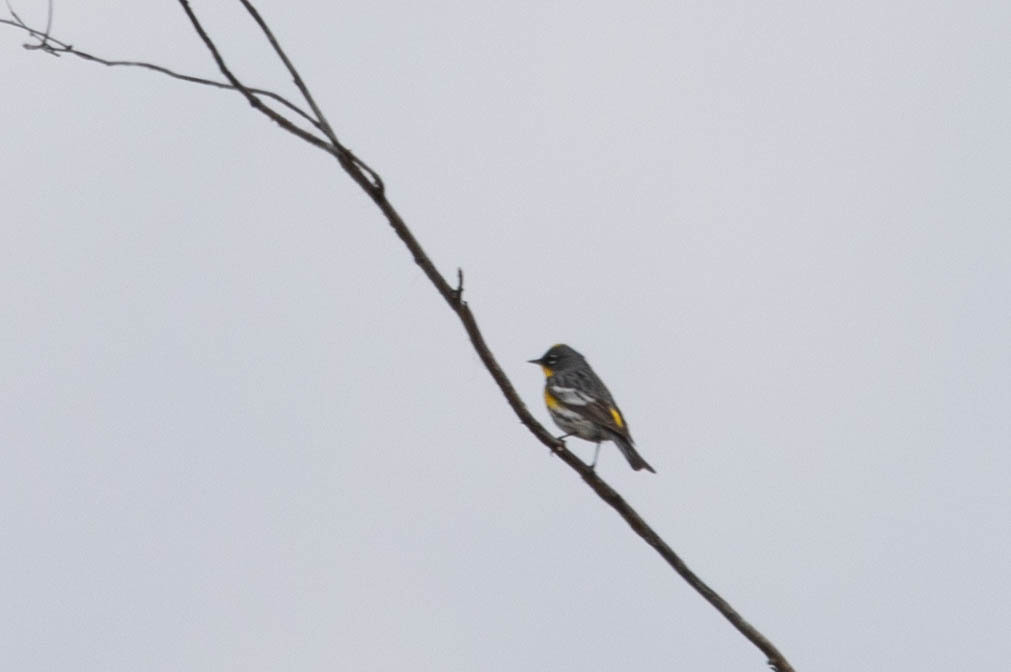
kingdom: Animalia
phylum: Chordata
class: Aves
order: Passeriformes
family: Parulidae
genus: Setophaga
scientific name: Setophaga coronata
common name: Myrtle warbler
